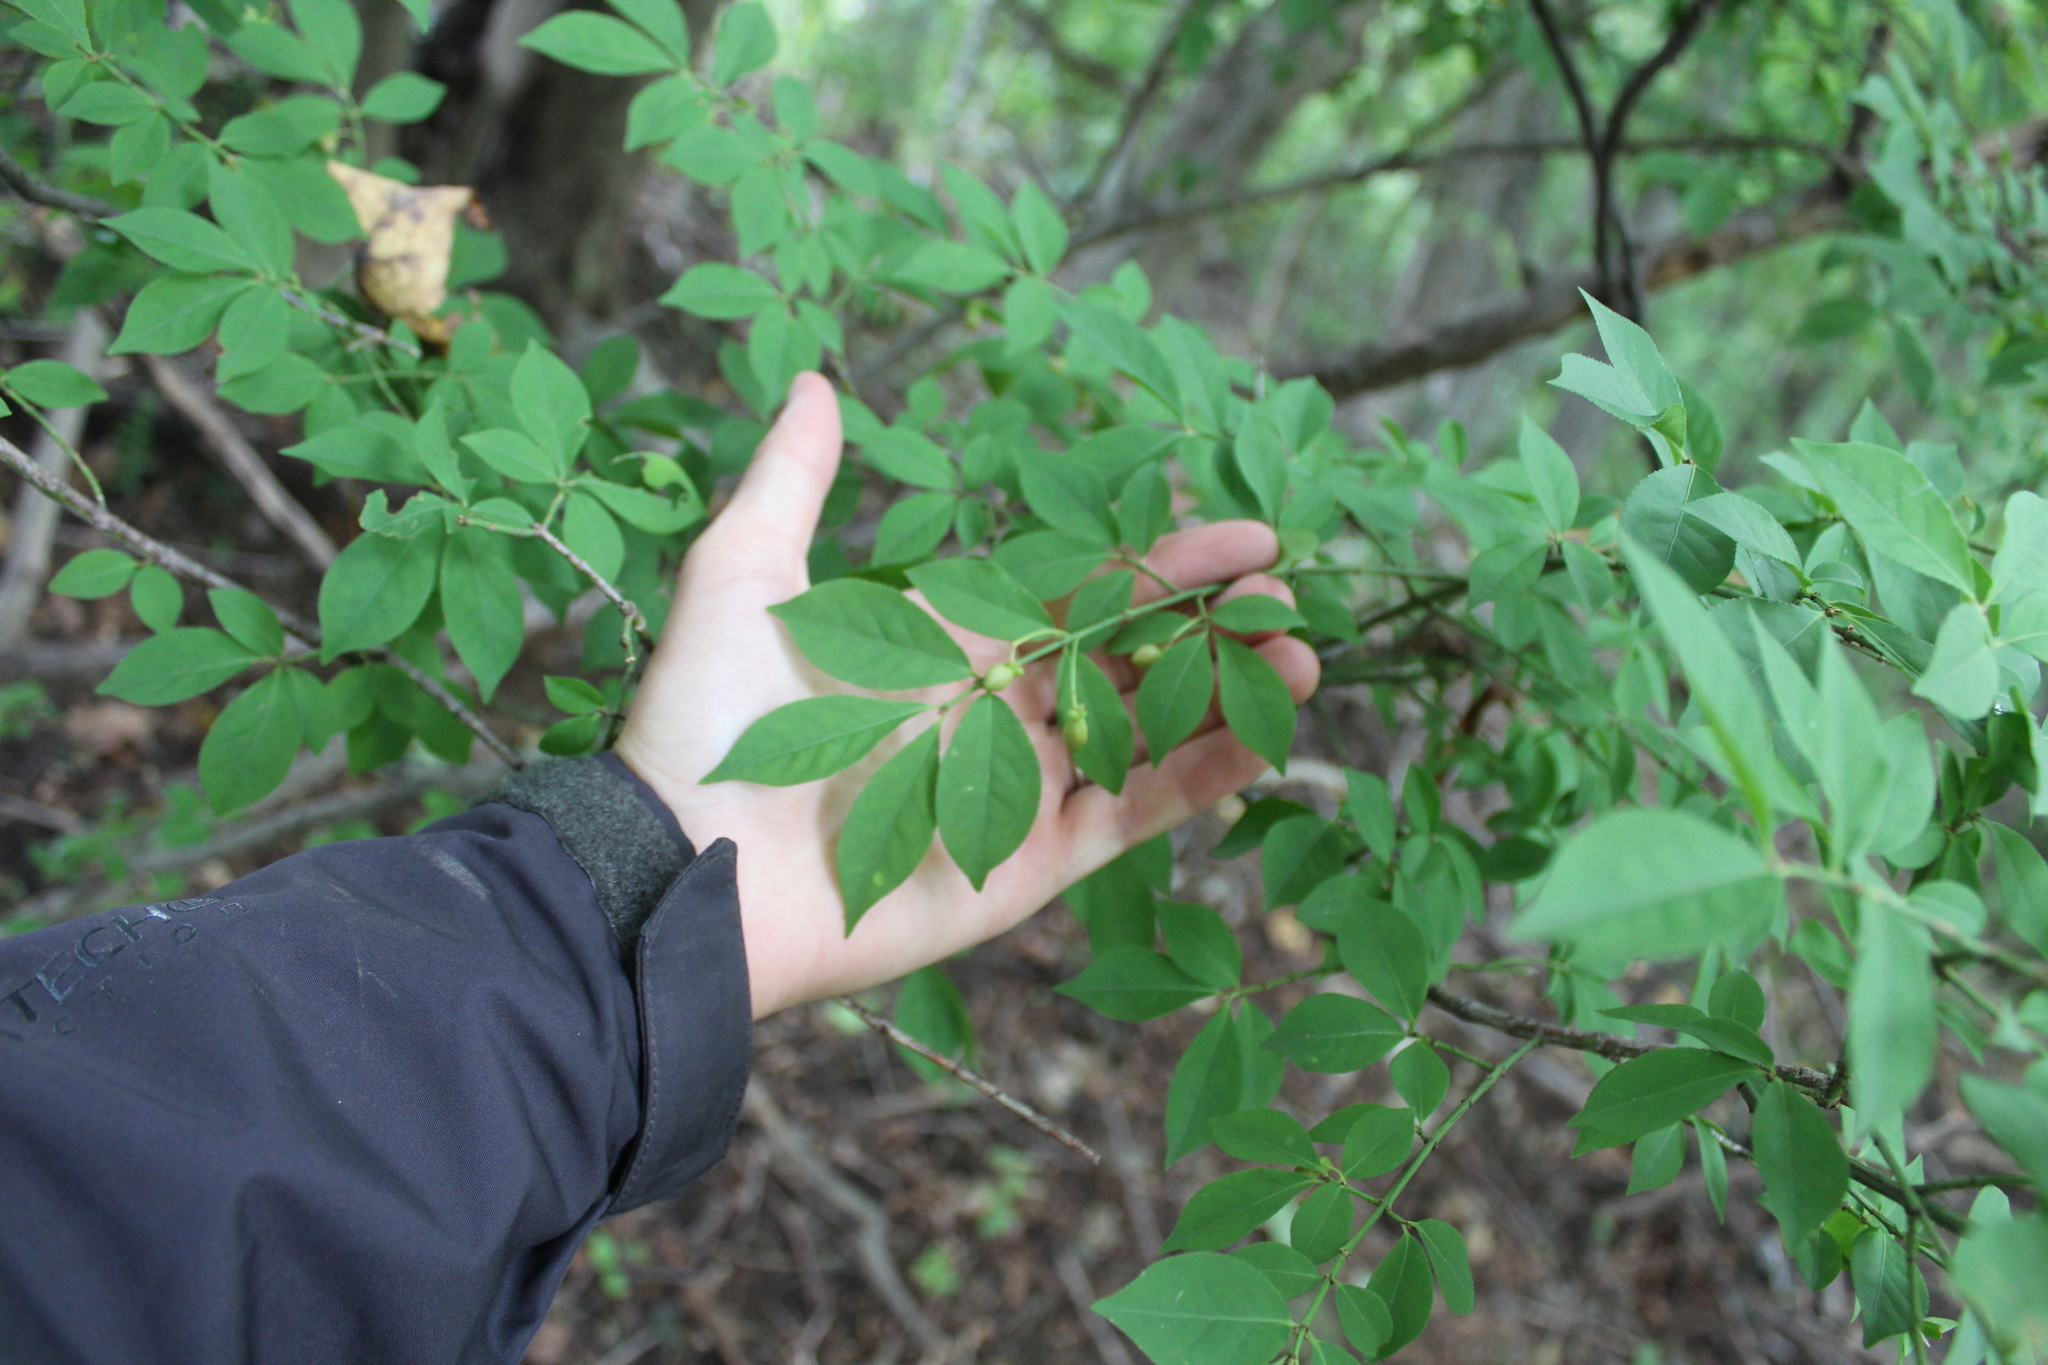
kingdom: Plantae
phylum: Tracheophyta
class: Magnoliopsida
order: Celastrales
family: Celastraceae
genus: Euonymus
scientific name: Euonymus alatus
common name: Winged euonymus
